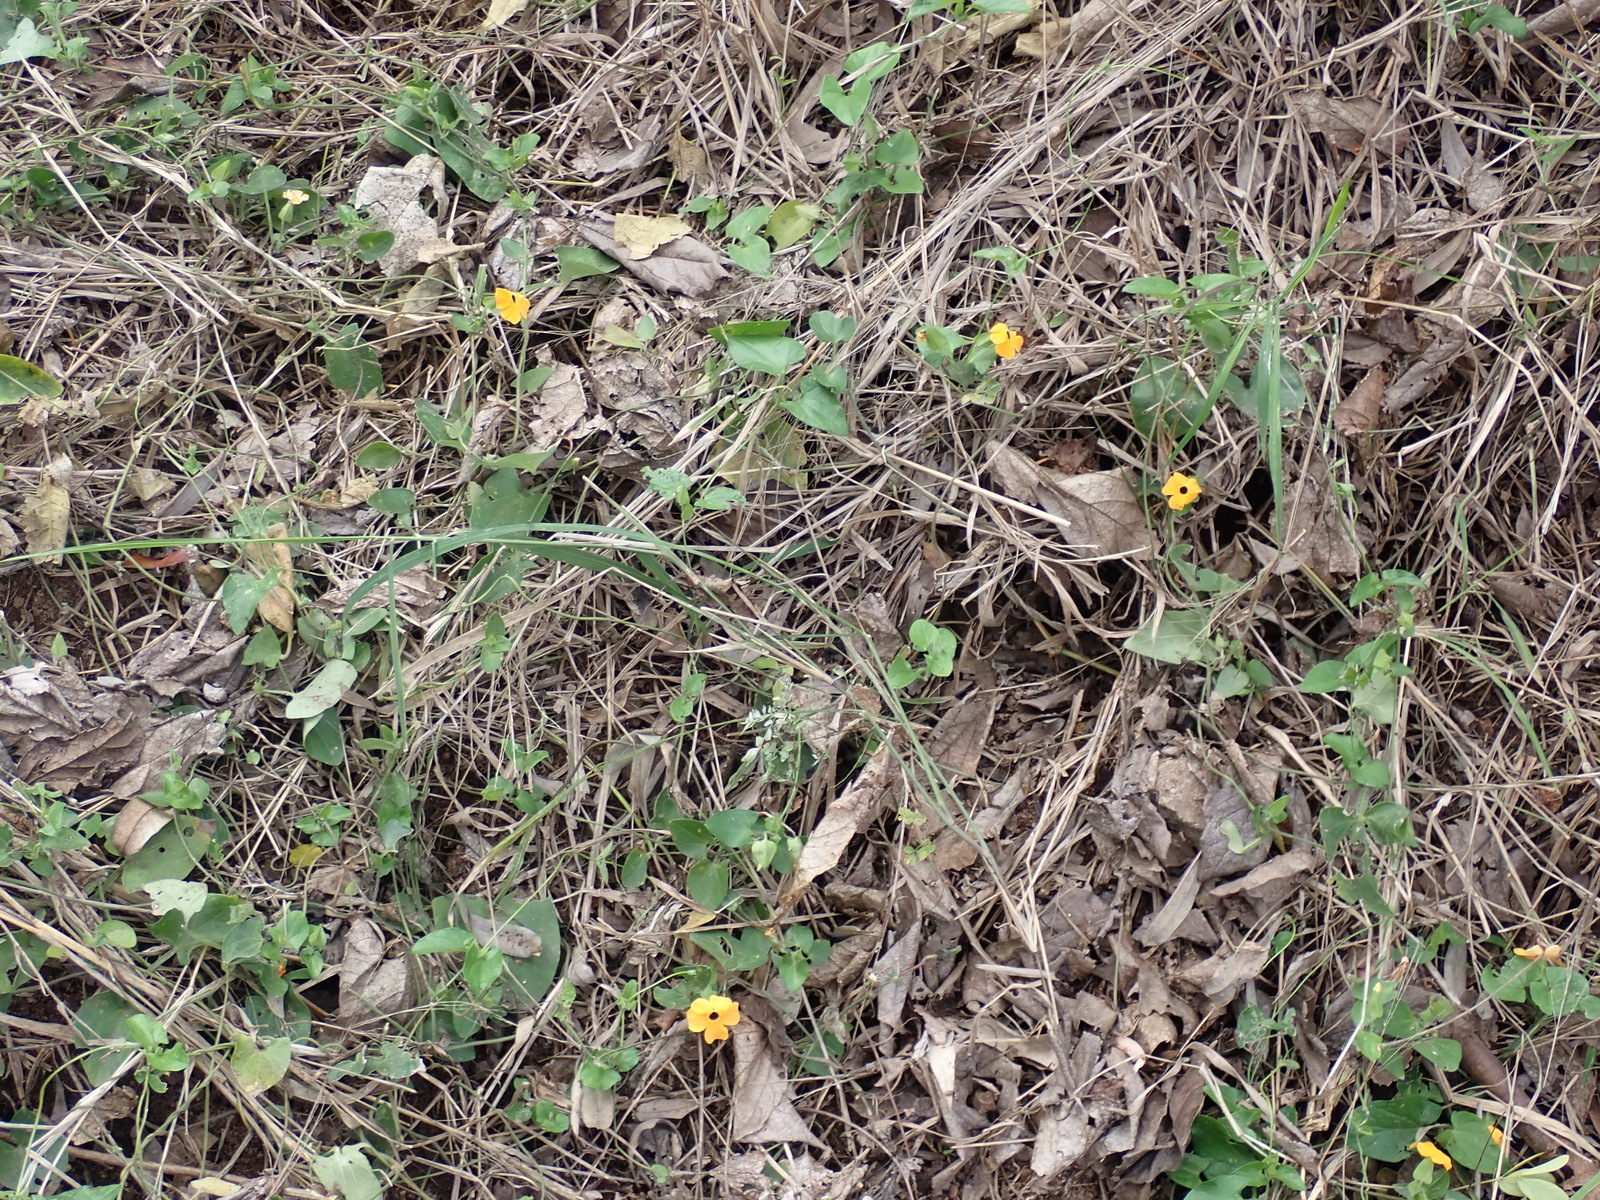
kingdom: Plantae
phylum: Tracheophyta
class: Magnoliopsida
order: Lamiales
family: Acanthaceae
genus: Thunbergia
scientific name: Thunbergia alata
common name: Blackeyed susan vine
